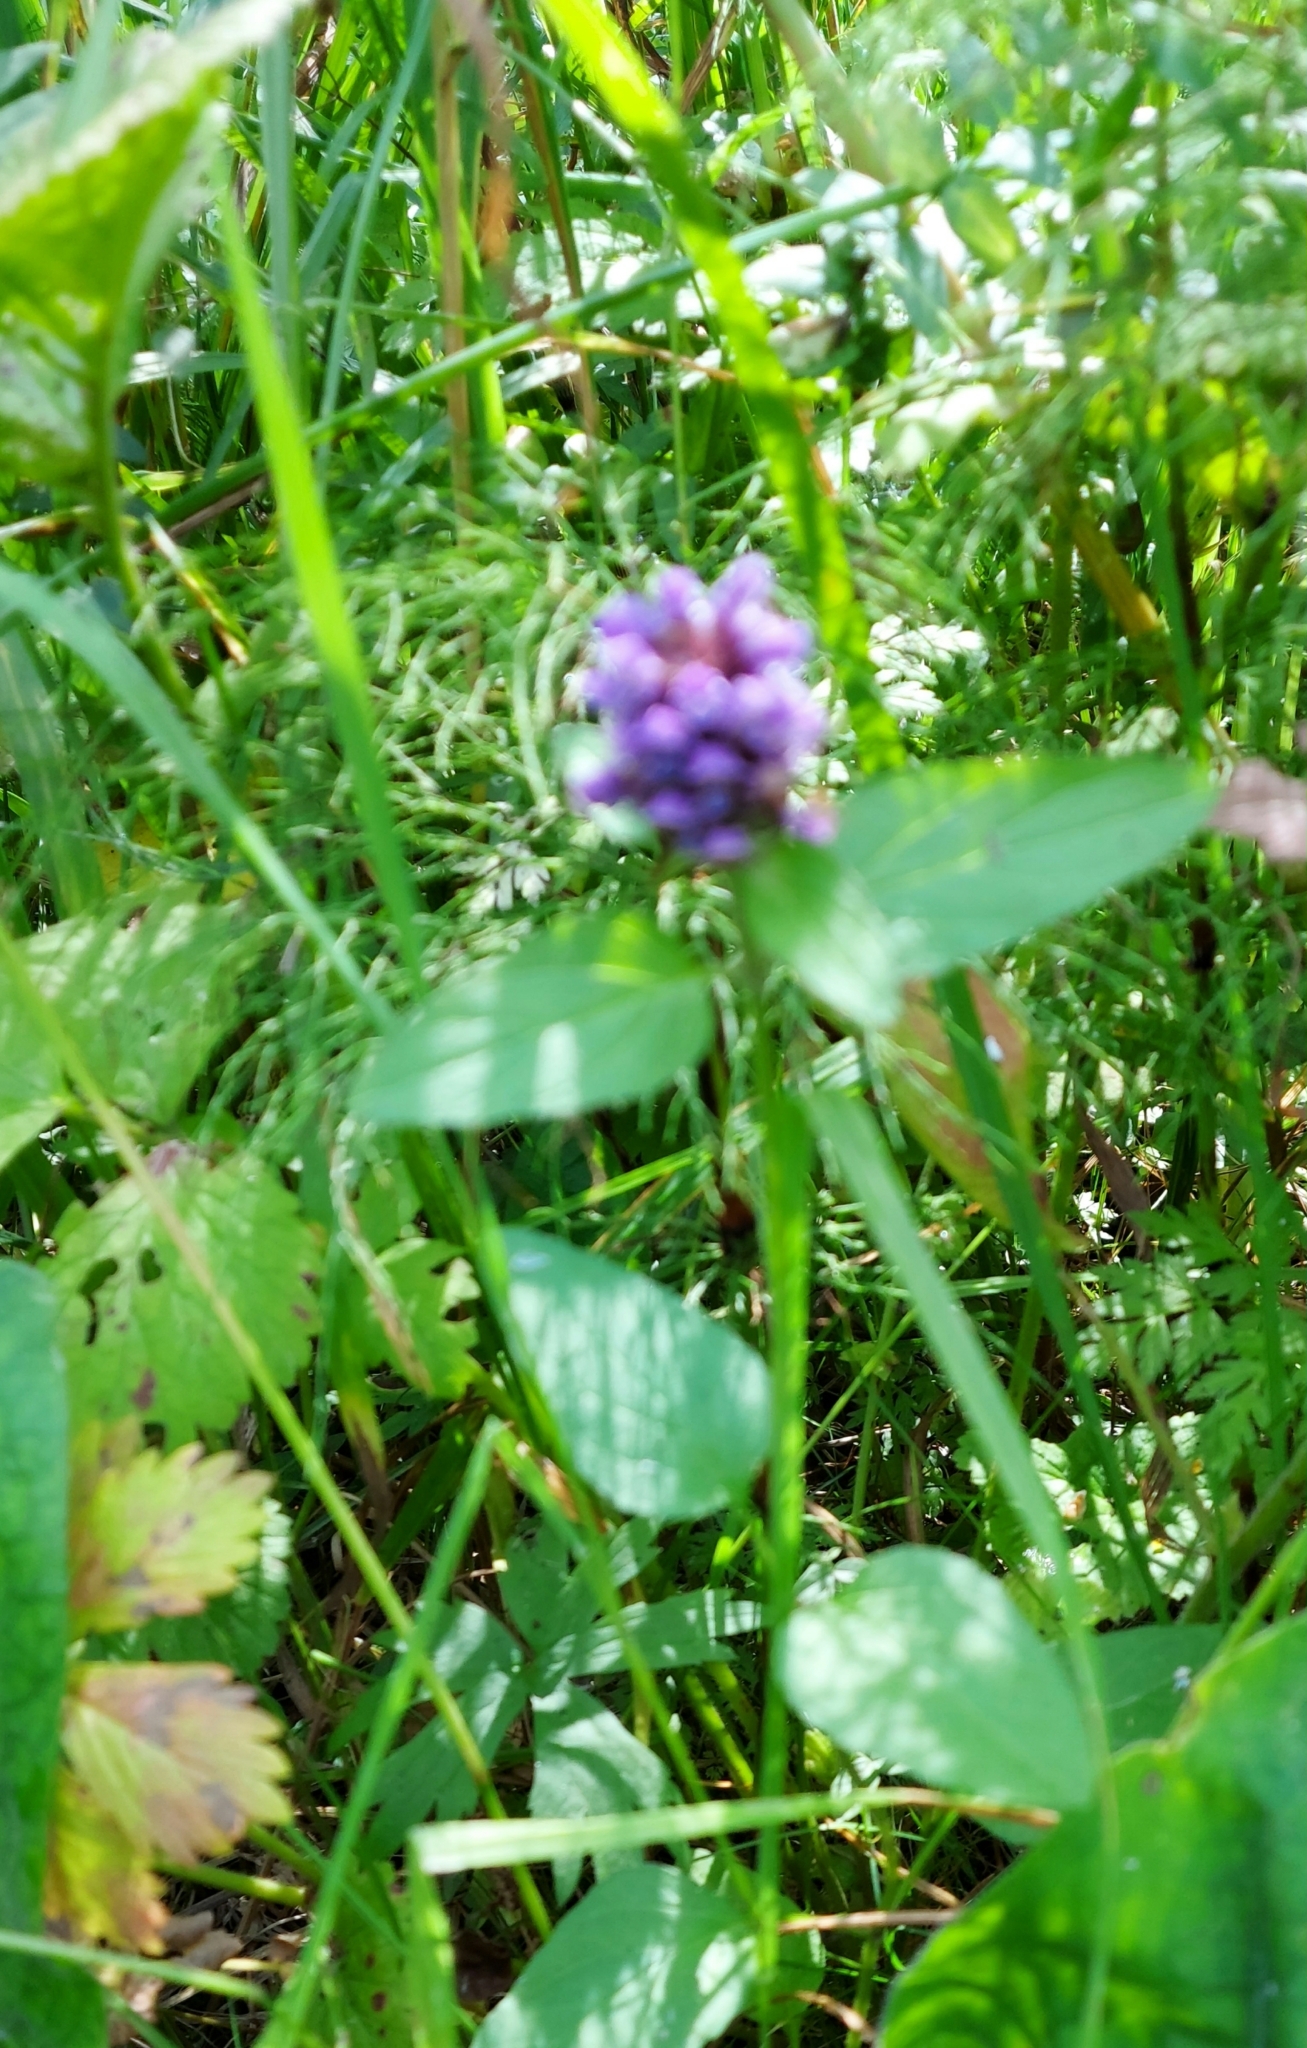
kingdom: Plantae
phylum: Tracheophyta
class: Magnoliopsida
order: Lamiales
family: Lamiaceae
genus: Prunella
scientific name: Prunella vulgaris
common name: Heal-all
